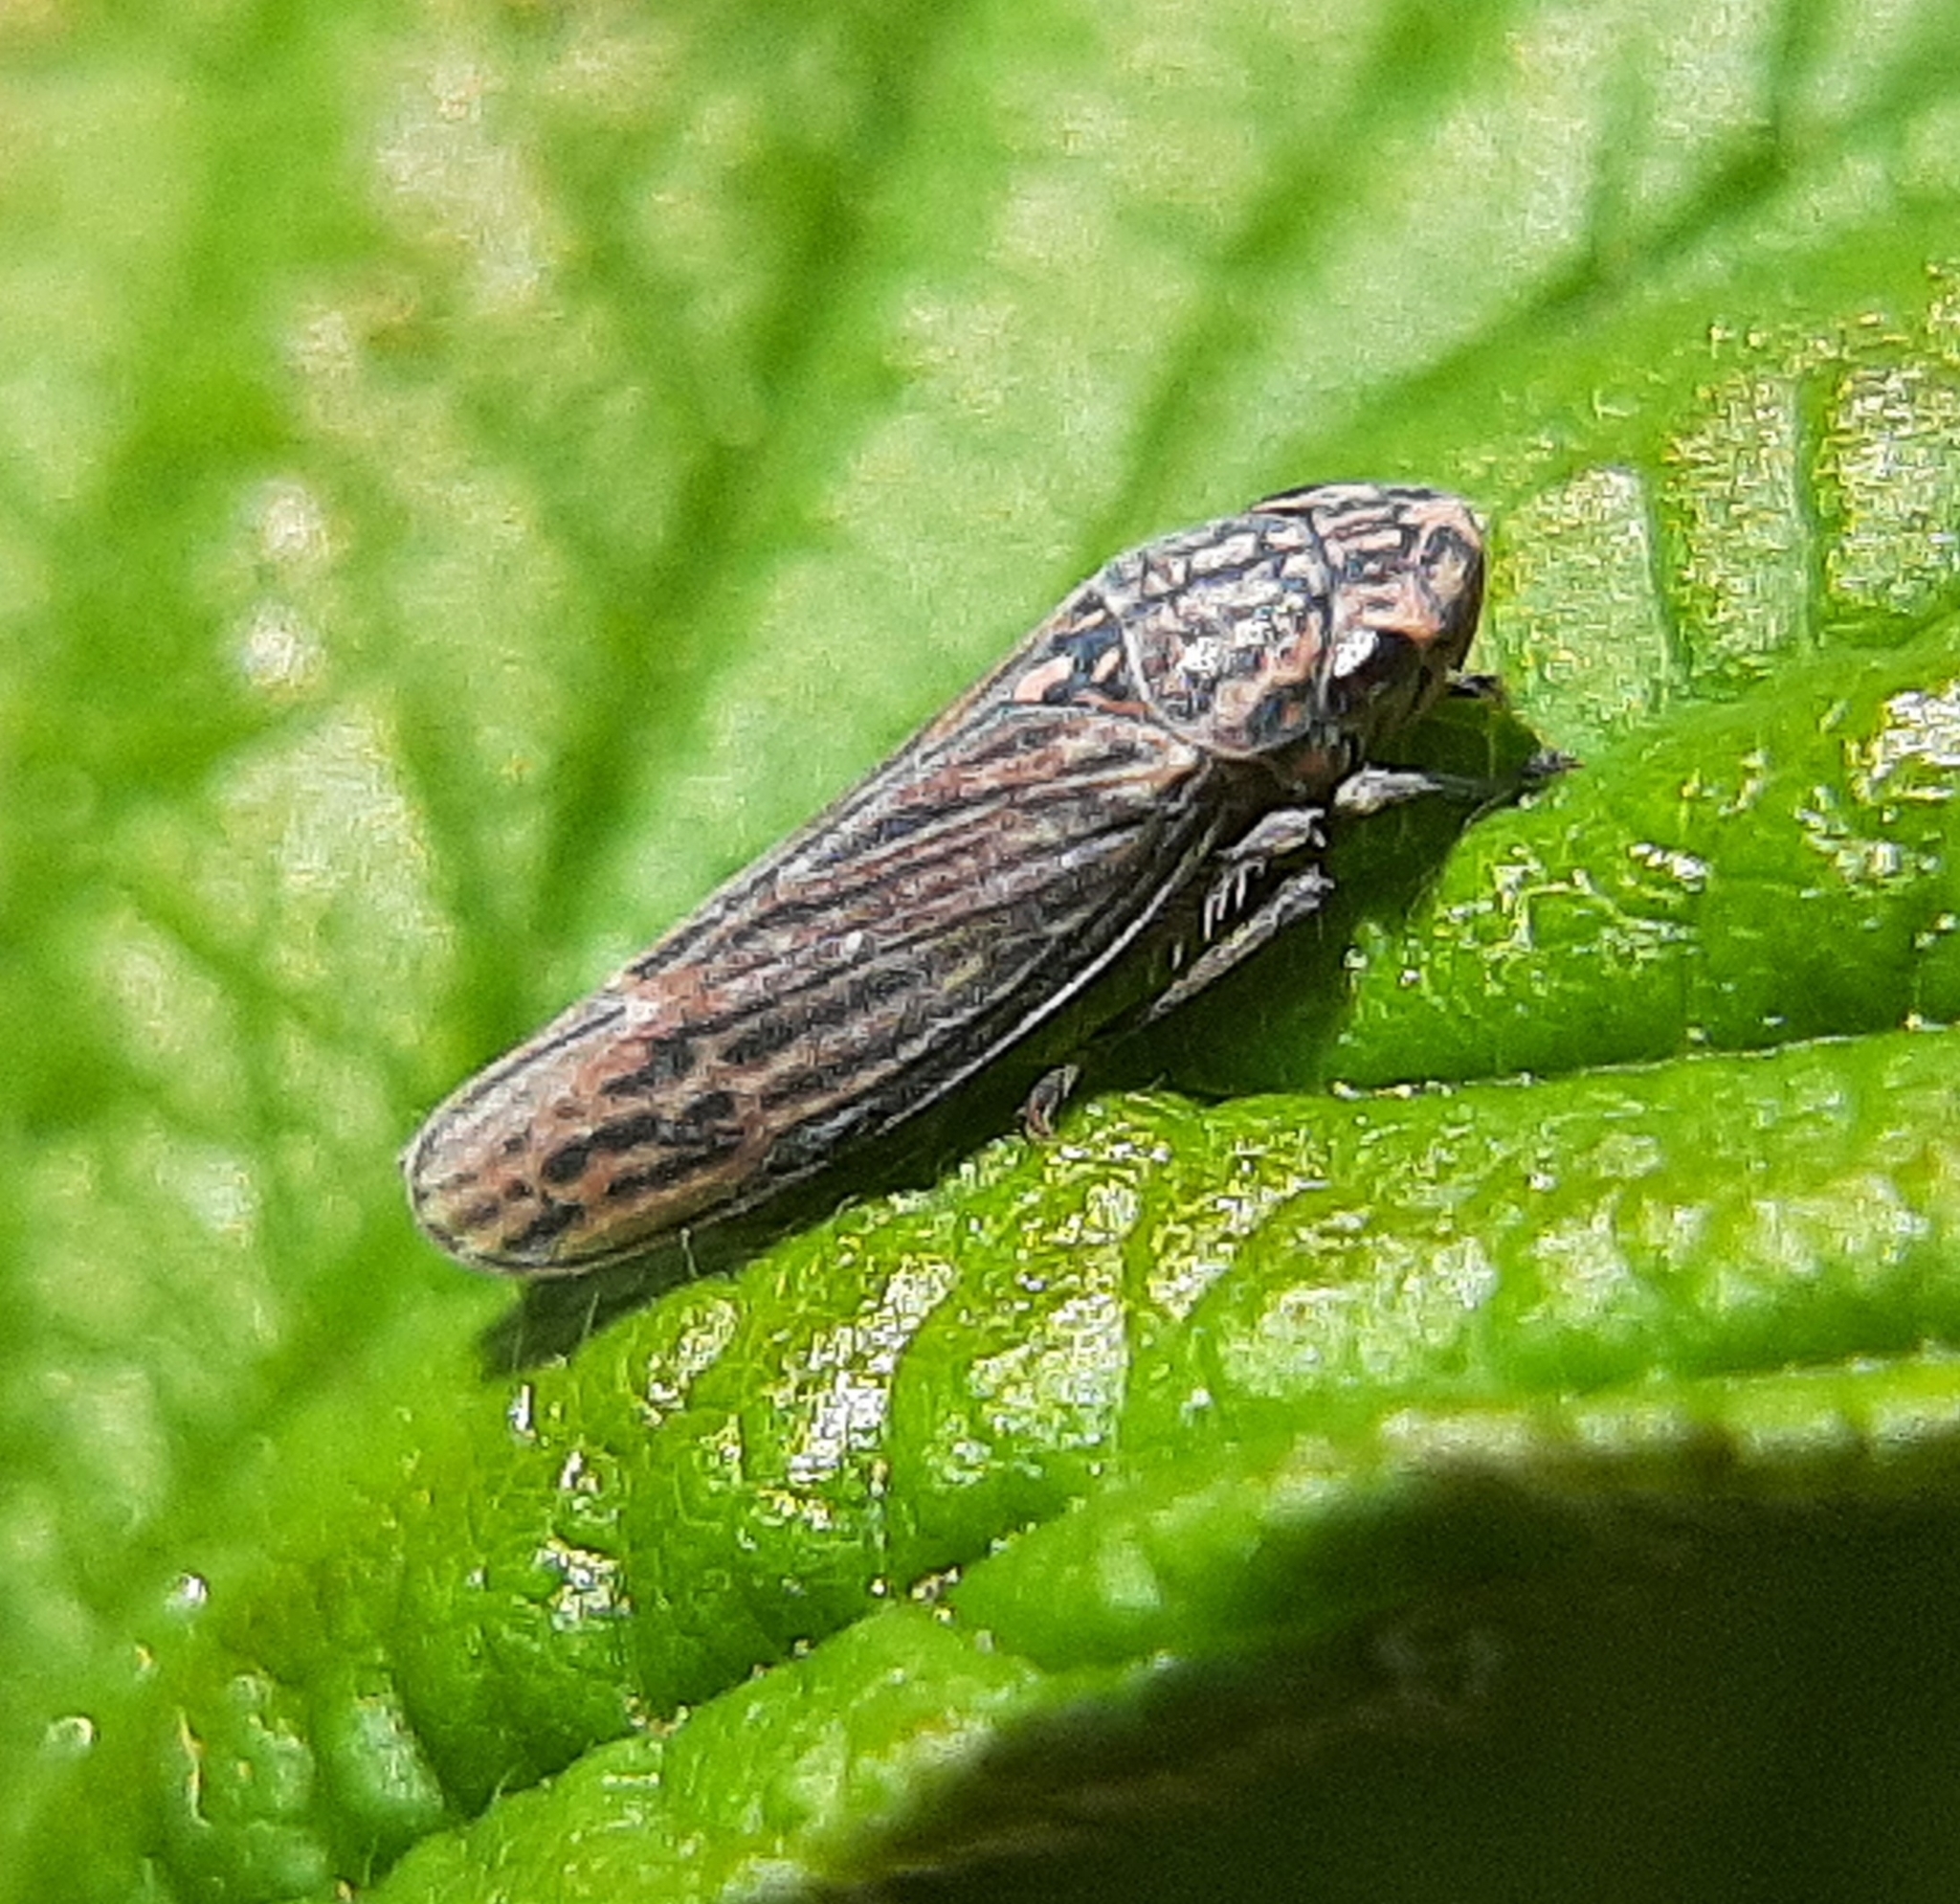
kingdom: Animalia
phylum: Arthropoda
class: Insecta
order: Hemiptera
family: Cicadellidae
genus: Neokolla
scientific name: Neokolla hieroglyphica
